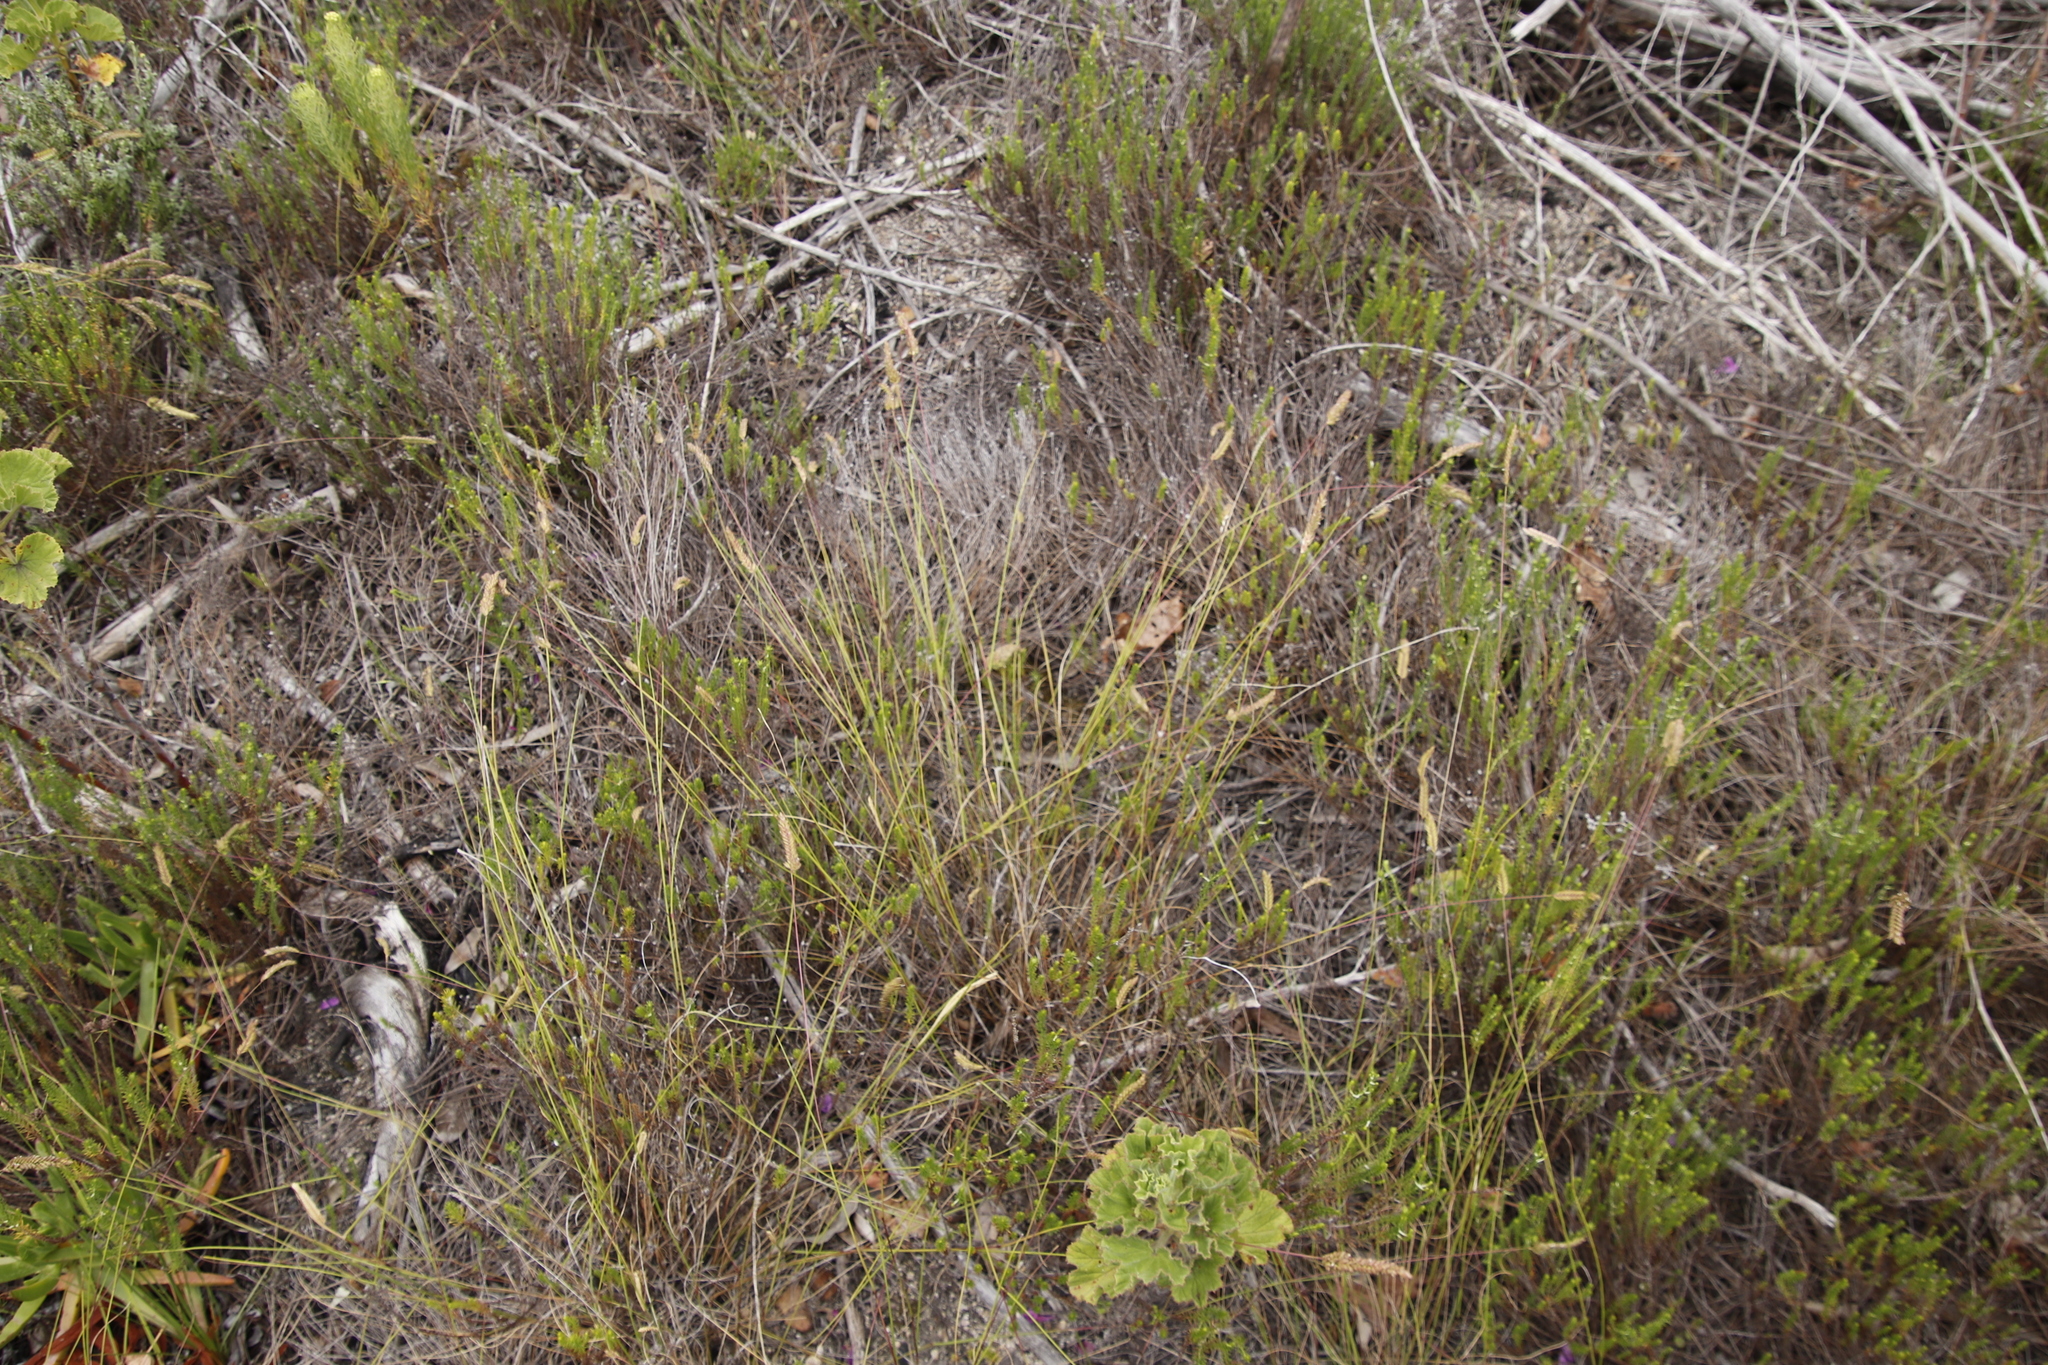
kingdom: Plantae
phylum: Tracheophyta
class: Liliopsida
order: Poales
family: Poaceae
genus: Tribolium
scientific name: Tribolium uniolae
